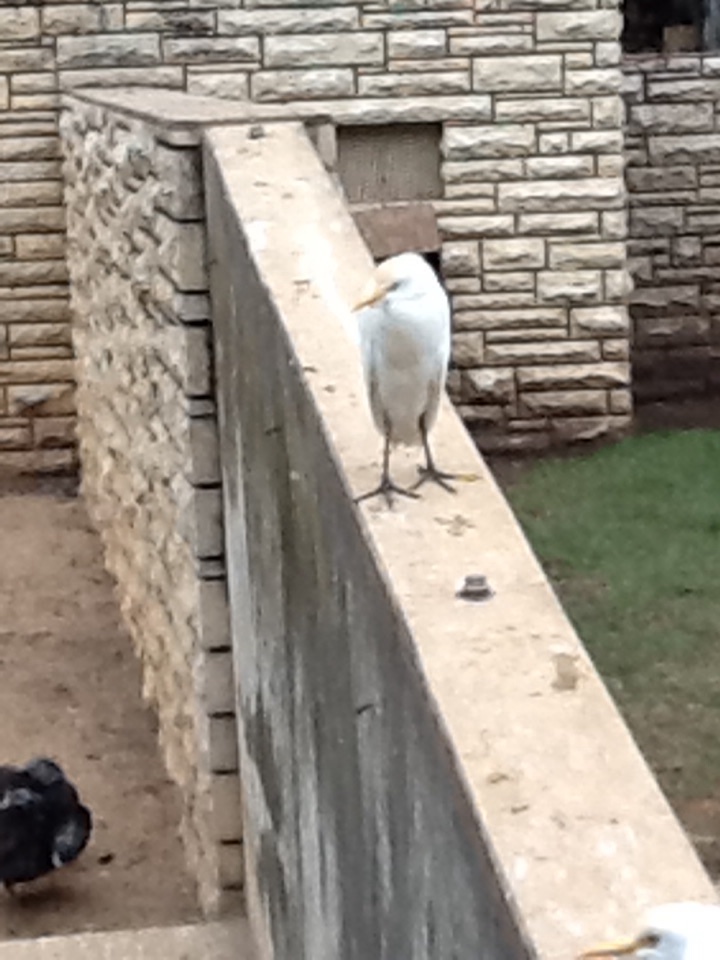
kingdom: Animalia
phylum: Chordata
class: Aves
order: Pelecaniformes
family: Ardeidae
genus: Bubulcus
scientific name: Bubulcus ibis
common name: Cattle egret
